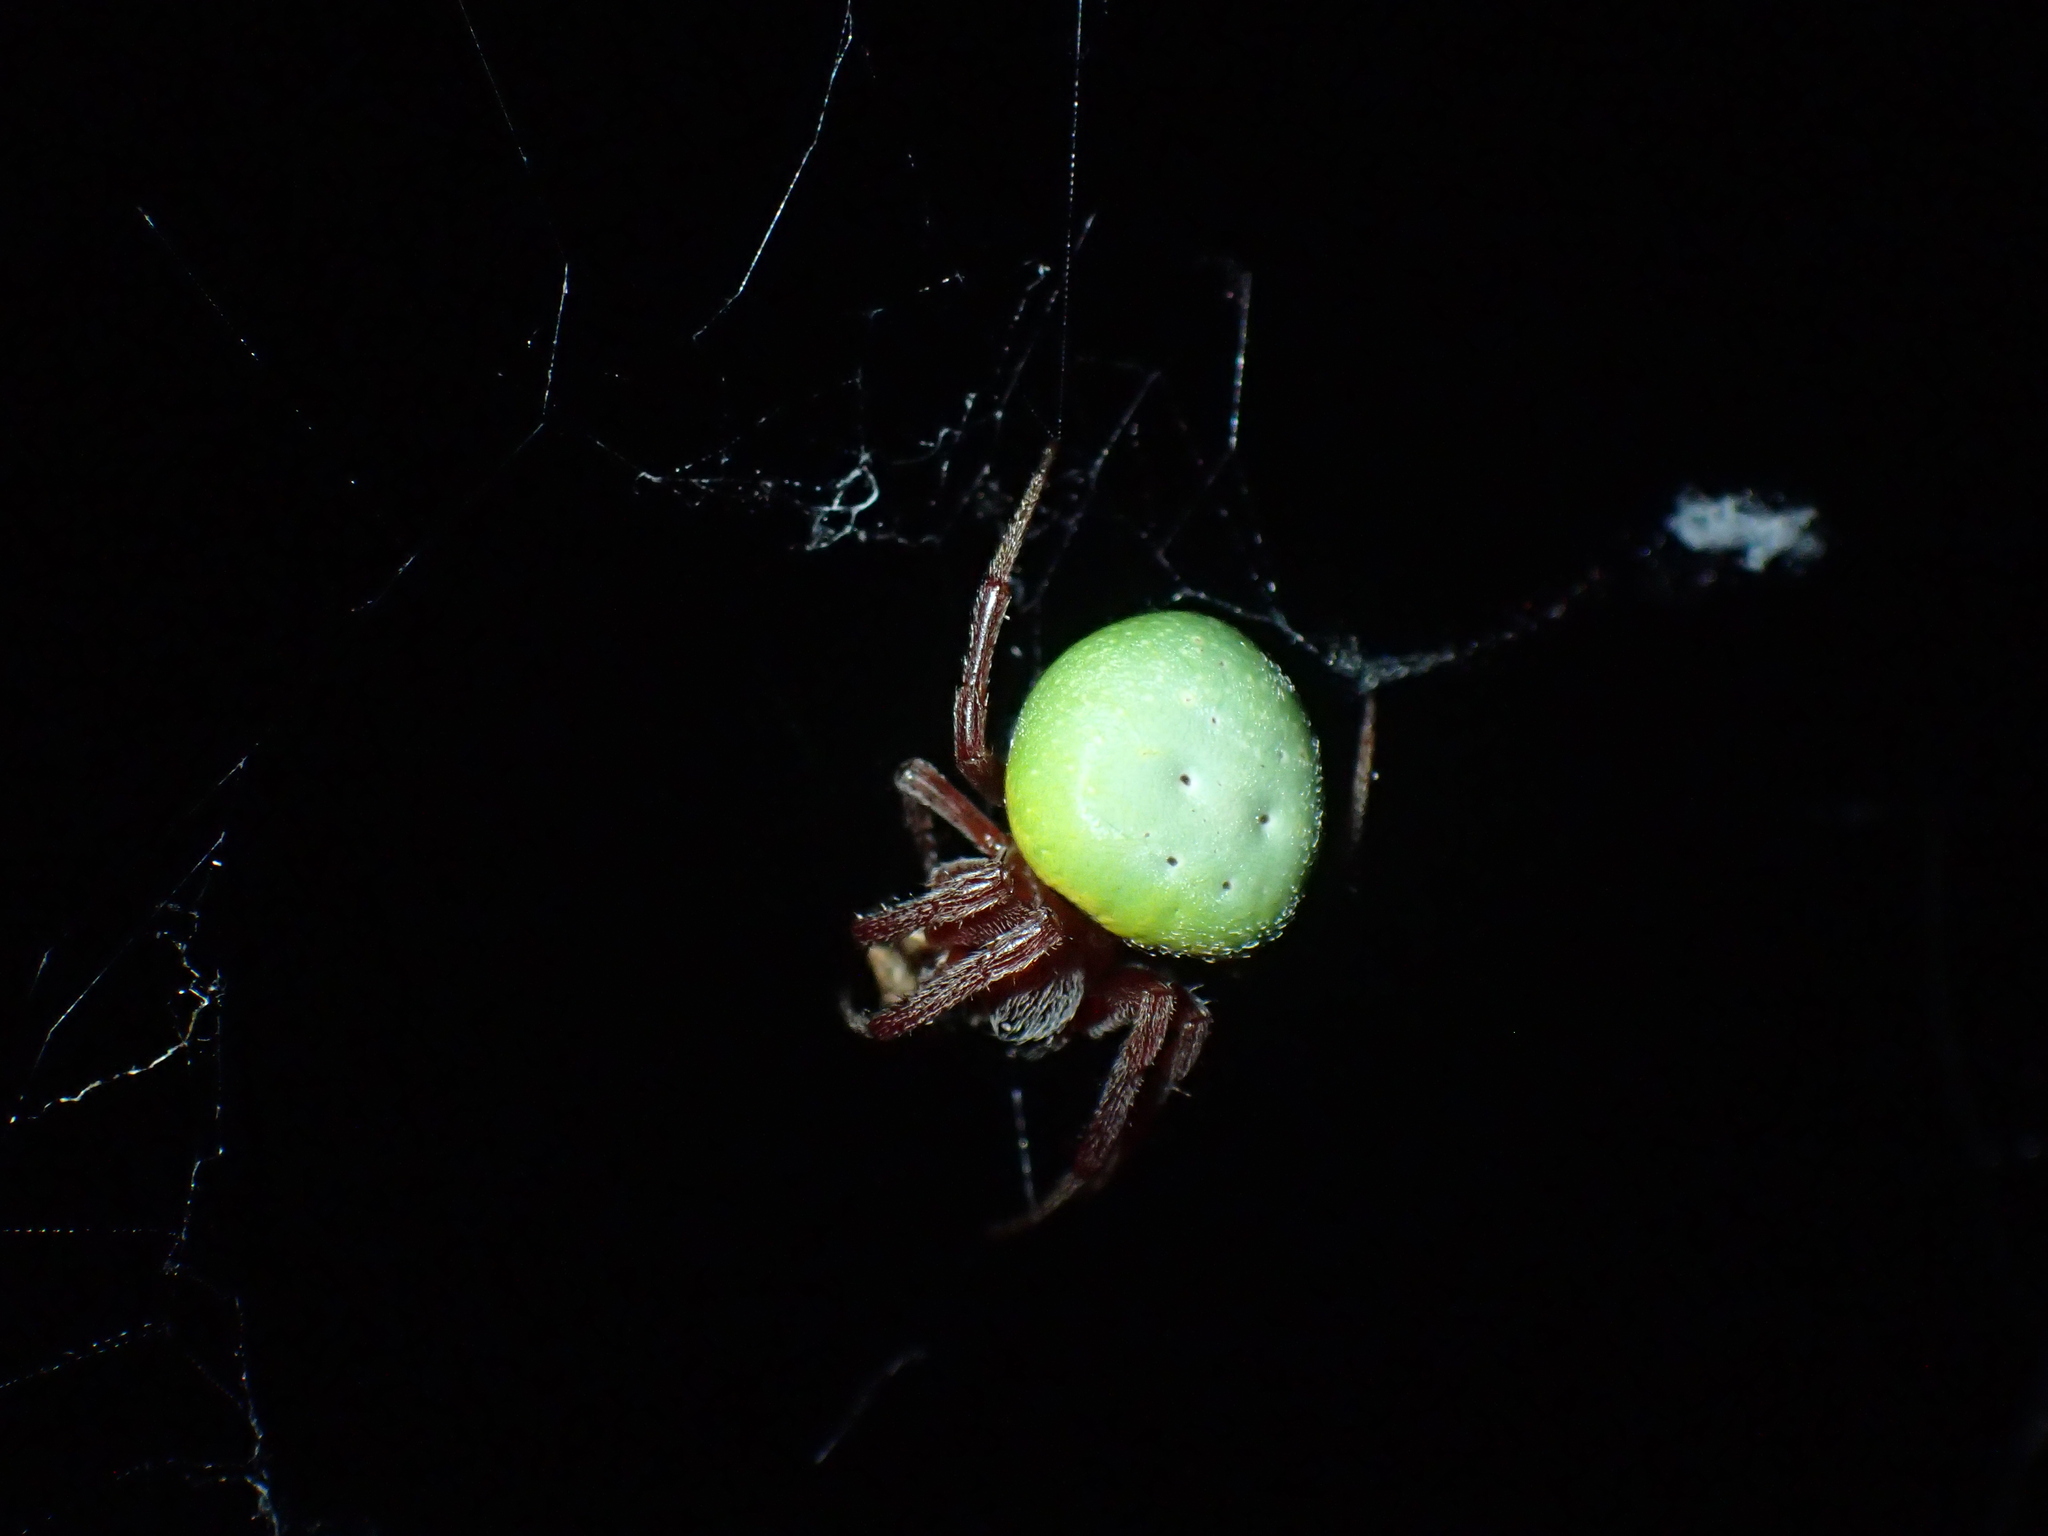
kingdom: Animalia
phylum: Arthropoda
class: Arachnida
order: Araneae
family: Araneidae
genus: Araneus
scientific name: Araneus apricus
